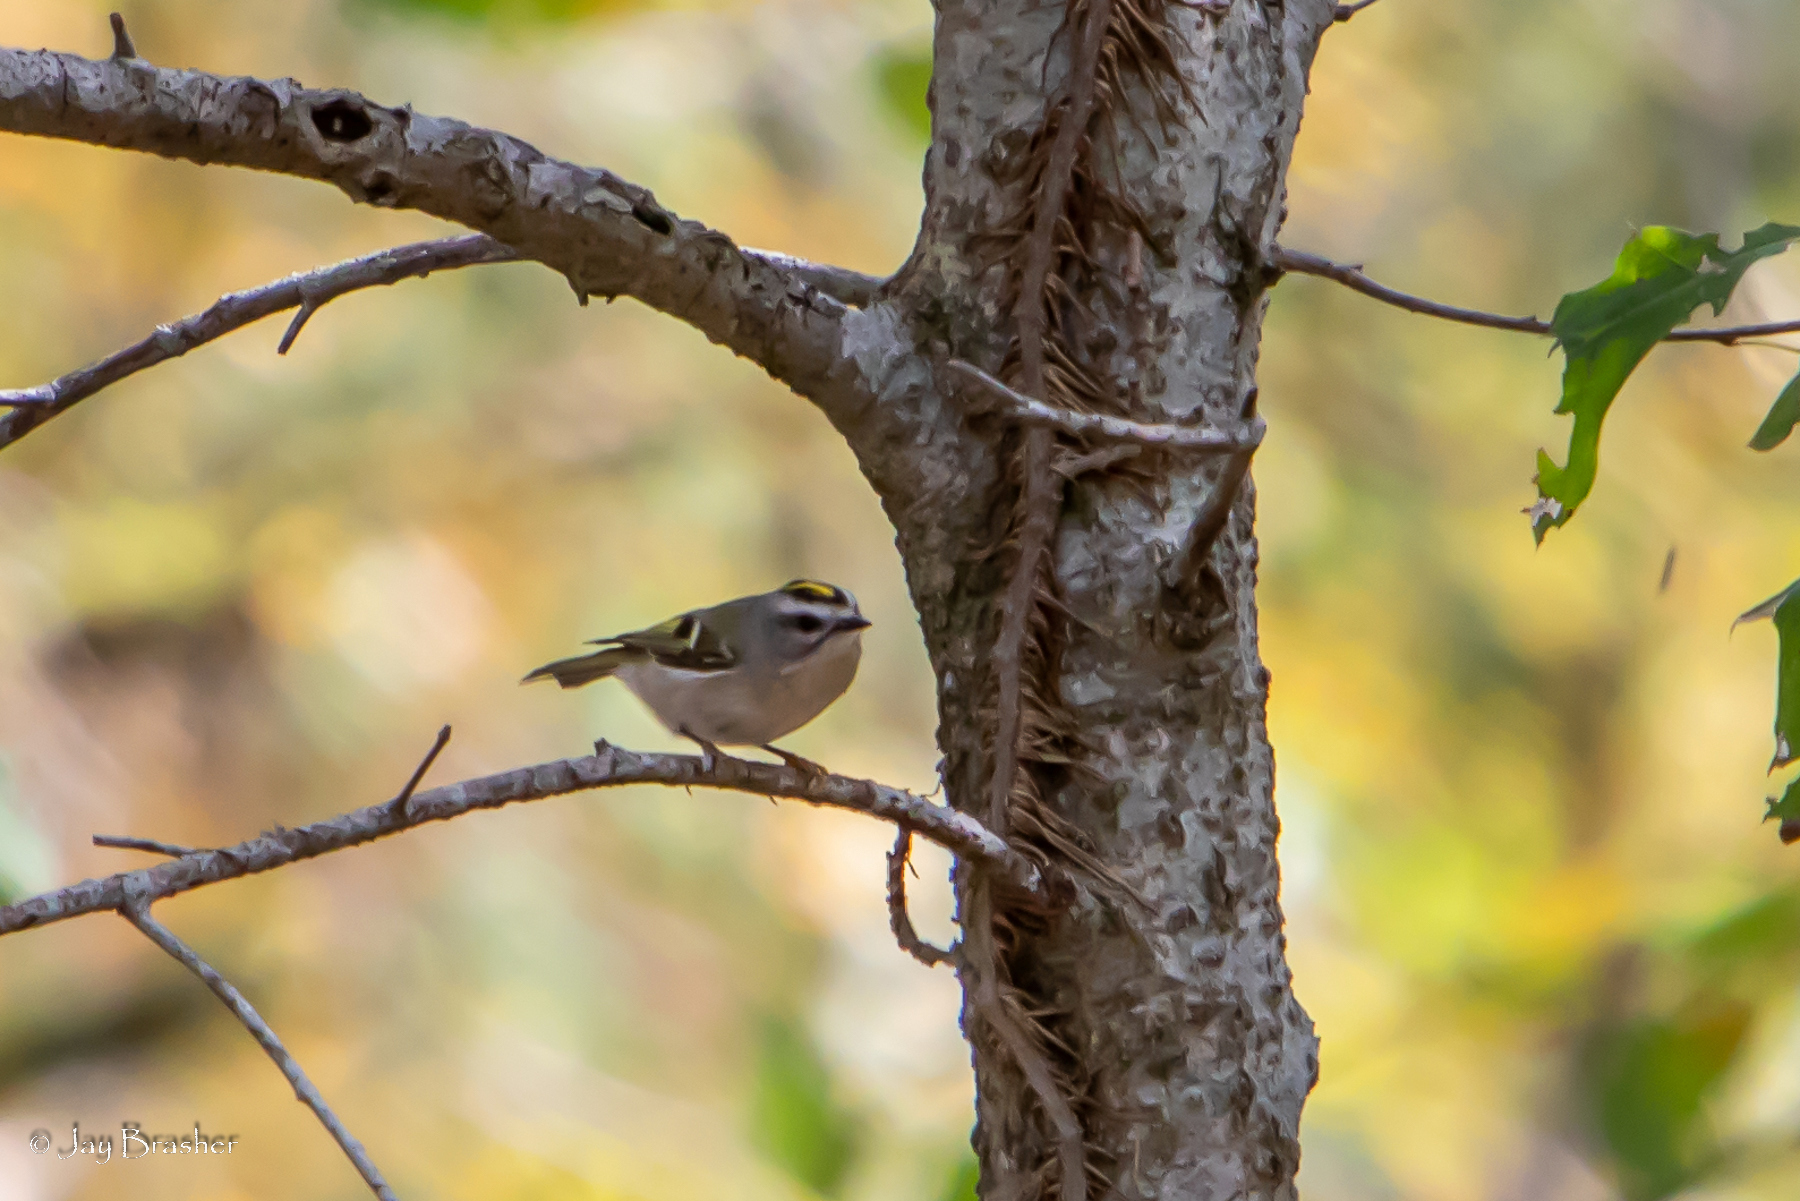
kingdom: Animalia
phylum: Chordata
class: Aves
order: Passeriformes
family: Regulidae
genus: Regulus
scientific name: Regulus satrapa
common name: Golden-crowned kinglet
